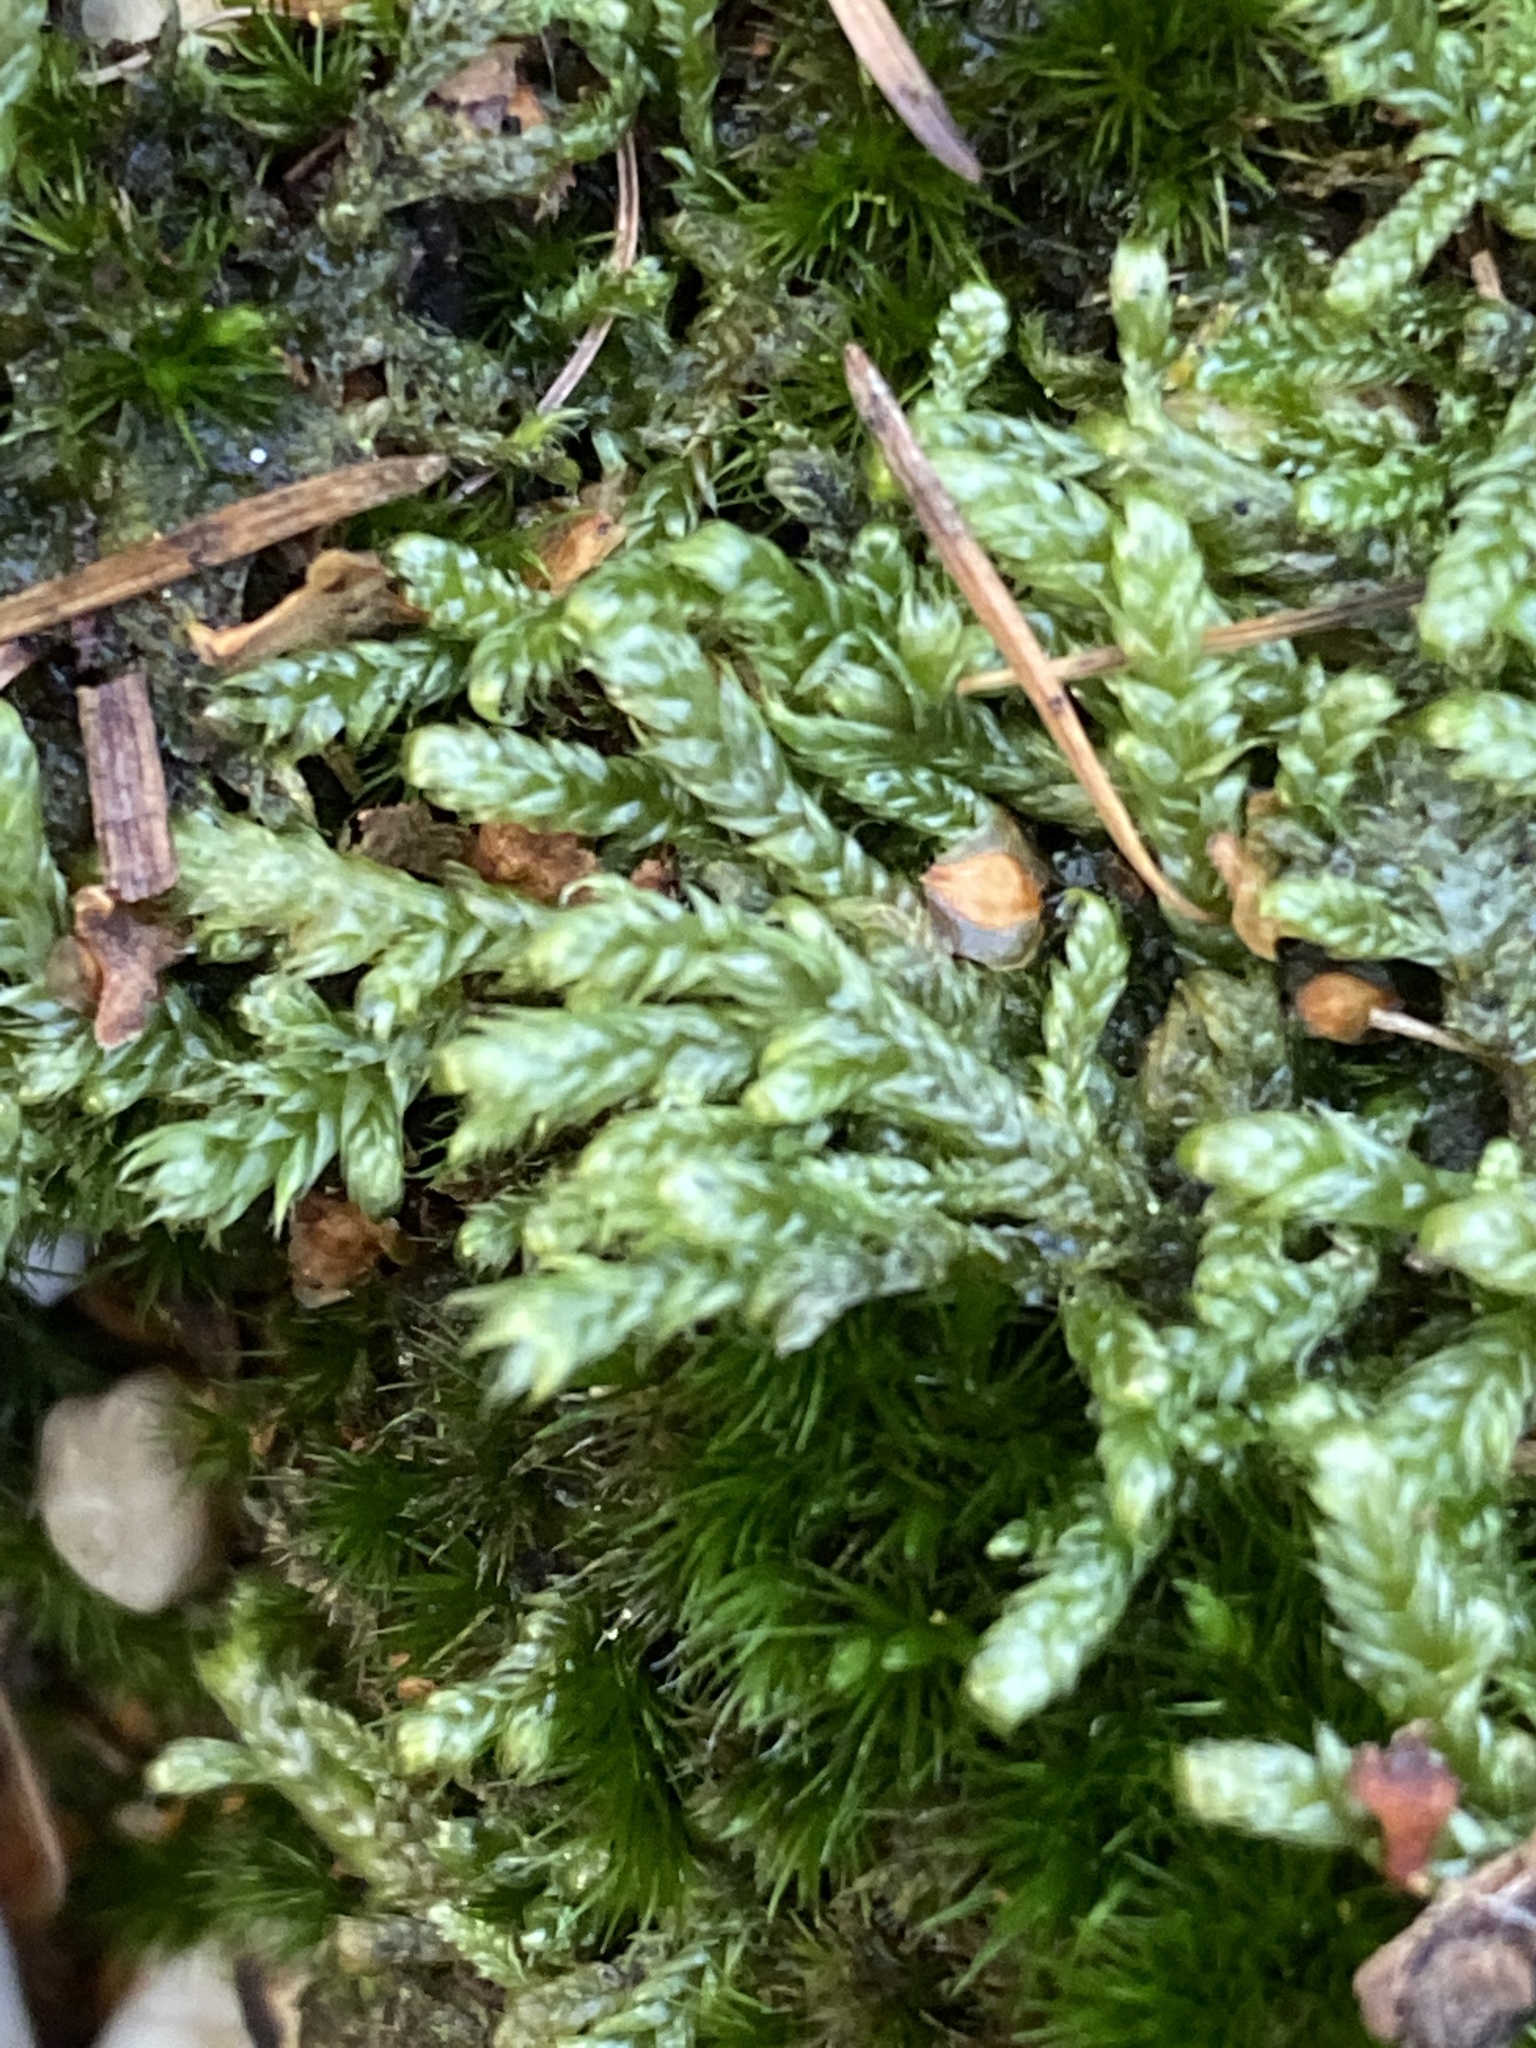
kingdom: Plantae
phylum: Bryophyta
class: Bryopsida
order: Hypnales
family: Hypnaceae
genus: Hypnum
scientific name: Hypnum cupressiforme
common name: Cypress-leaved plait-moss
